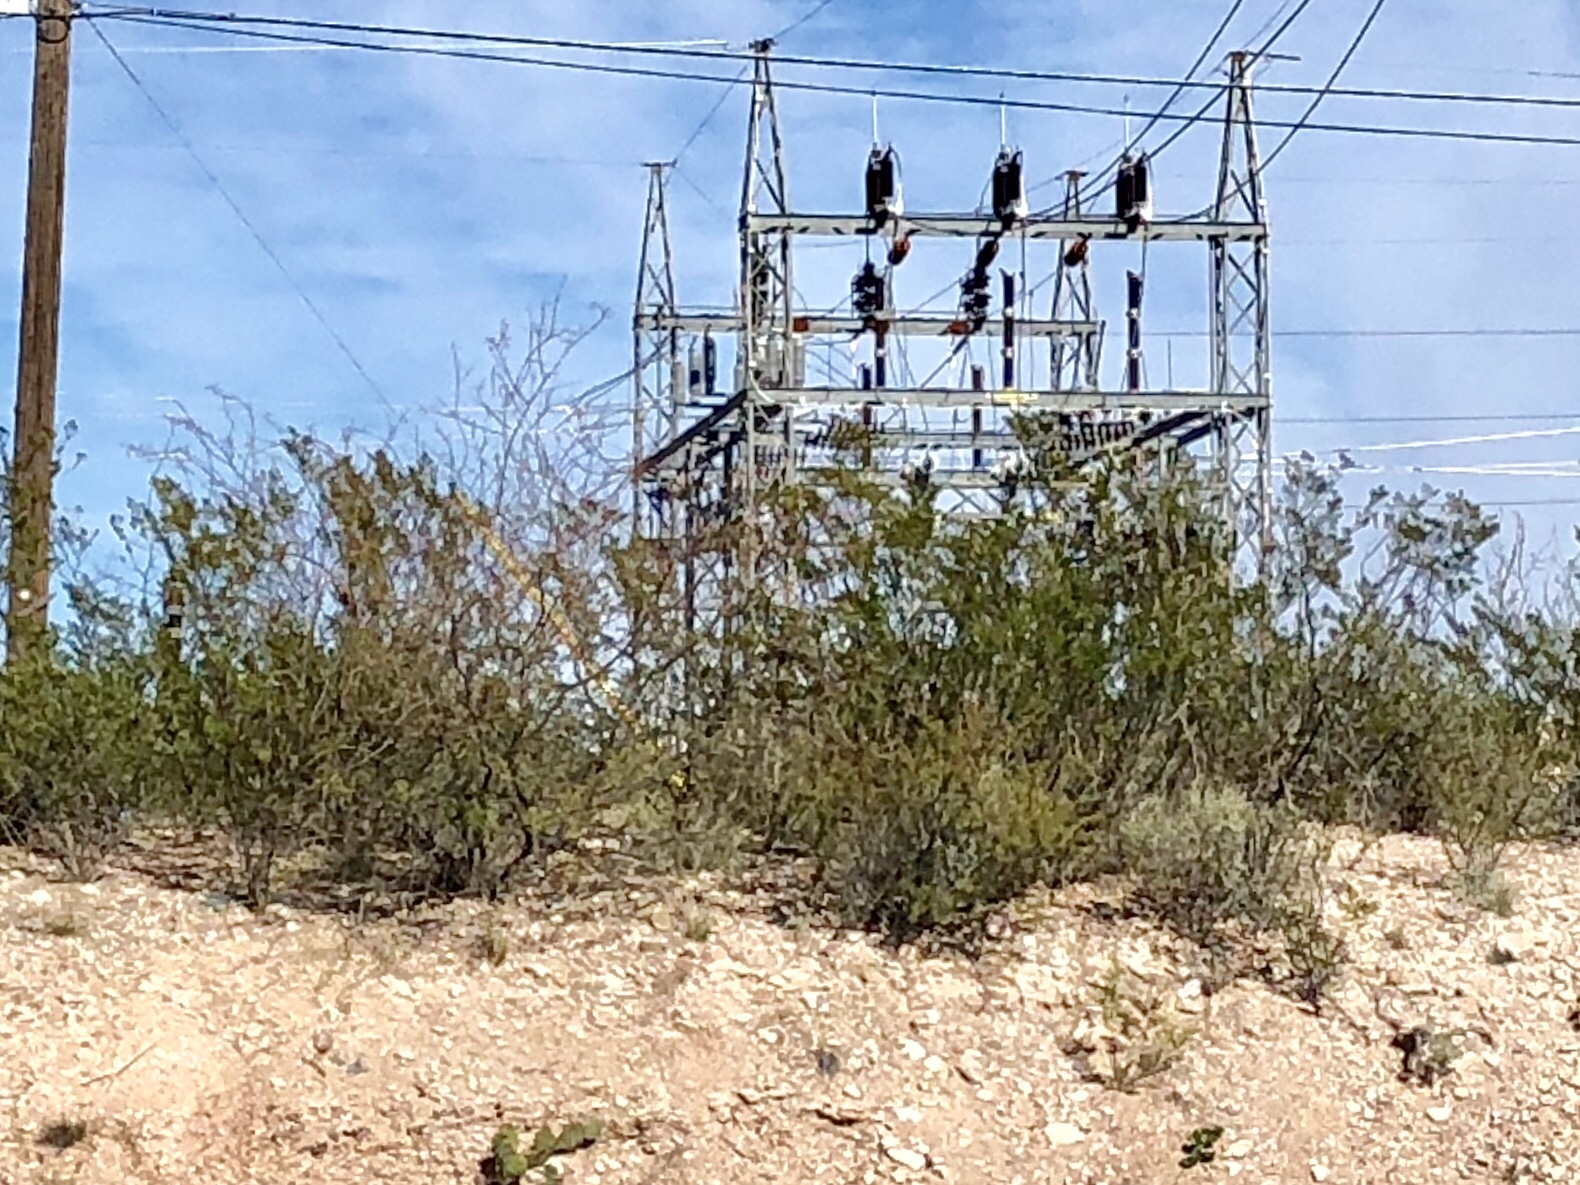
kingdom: Plantae
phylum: Tracheophyta
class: Magnoliopsida
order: Zygophyllales
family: Zygophyllaceae
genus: Larrea
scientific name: Larrea tridentata
